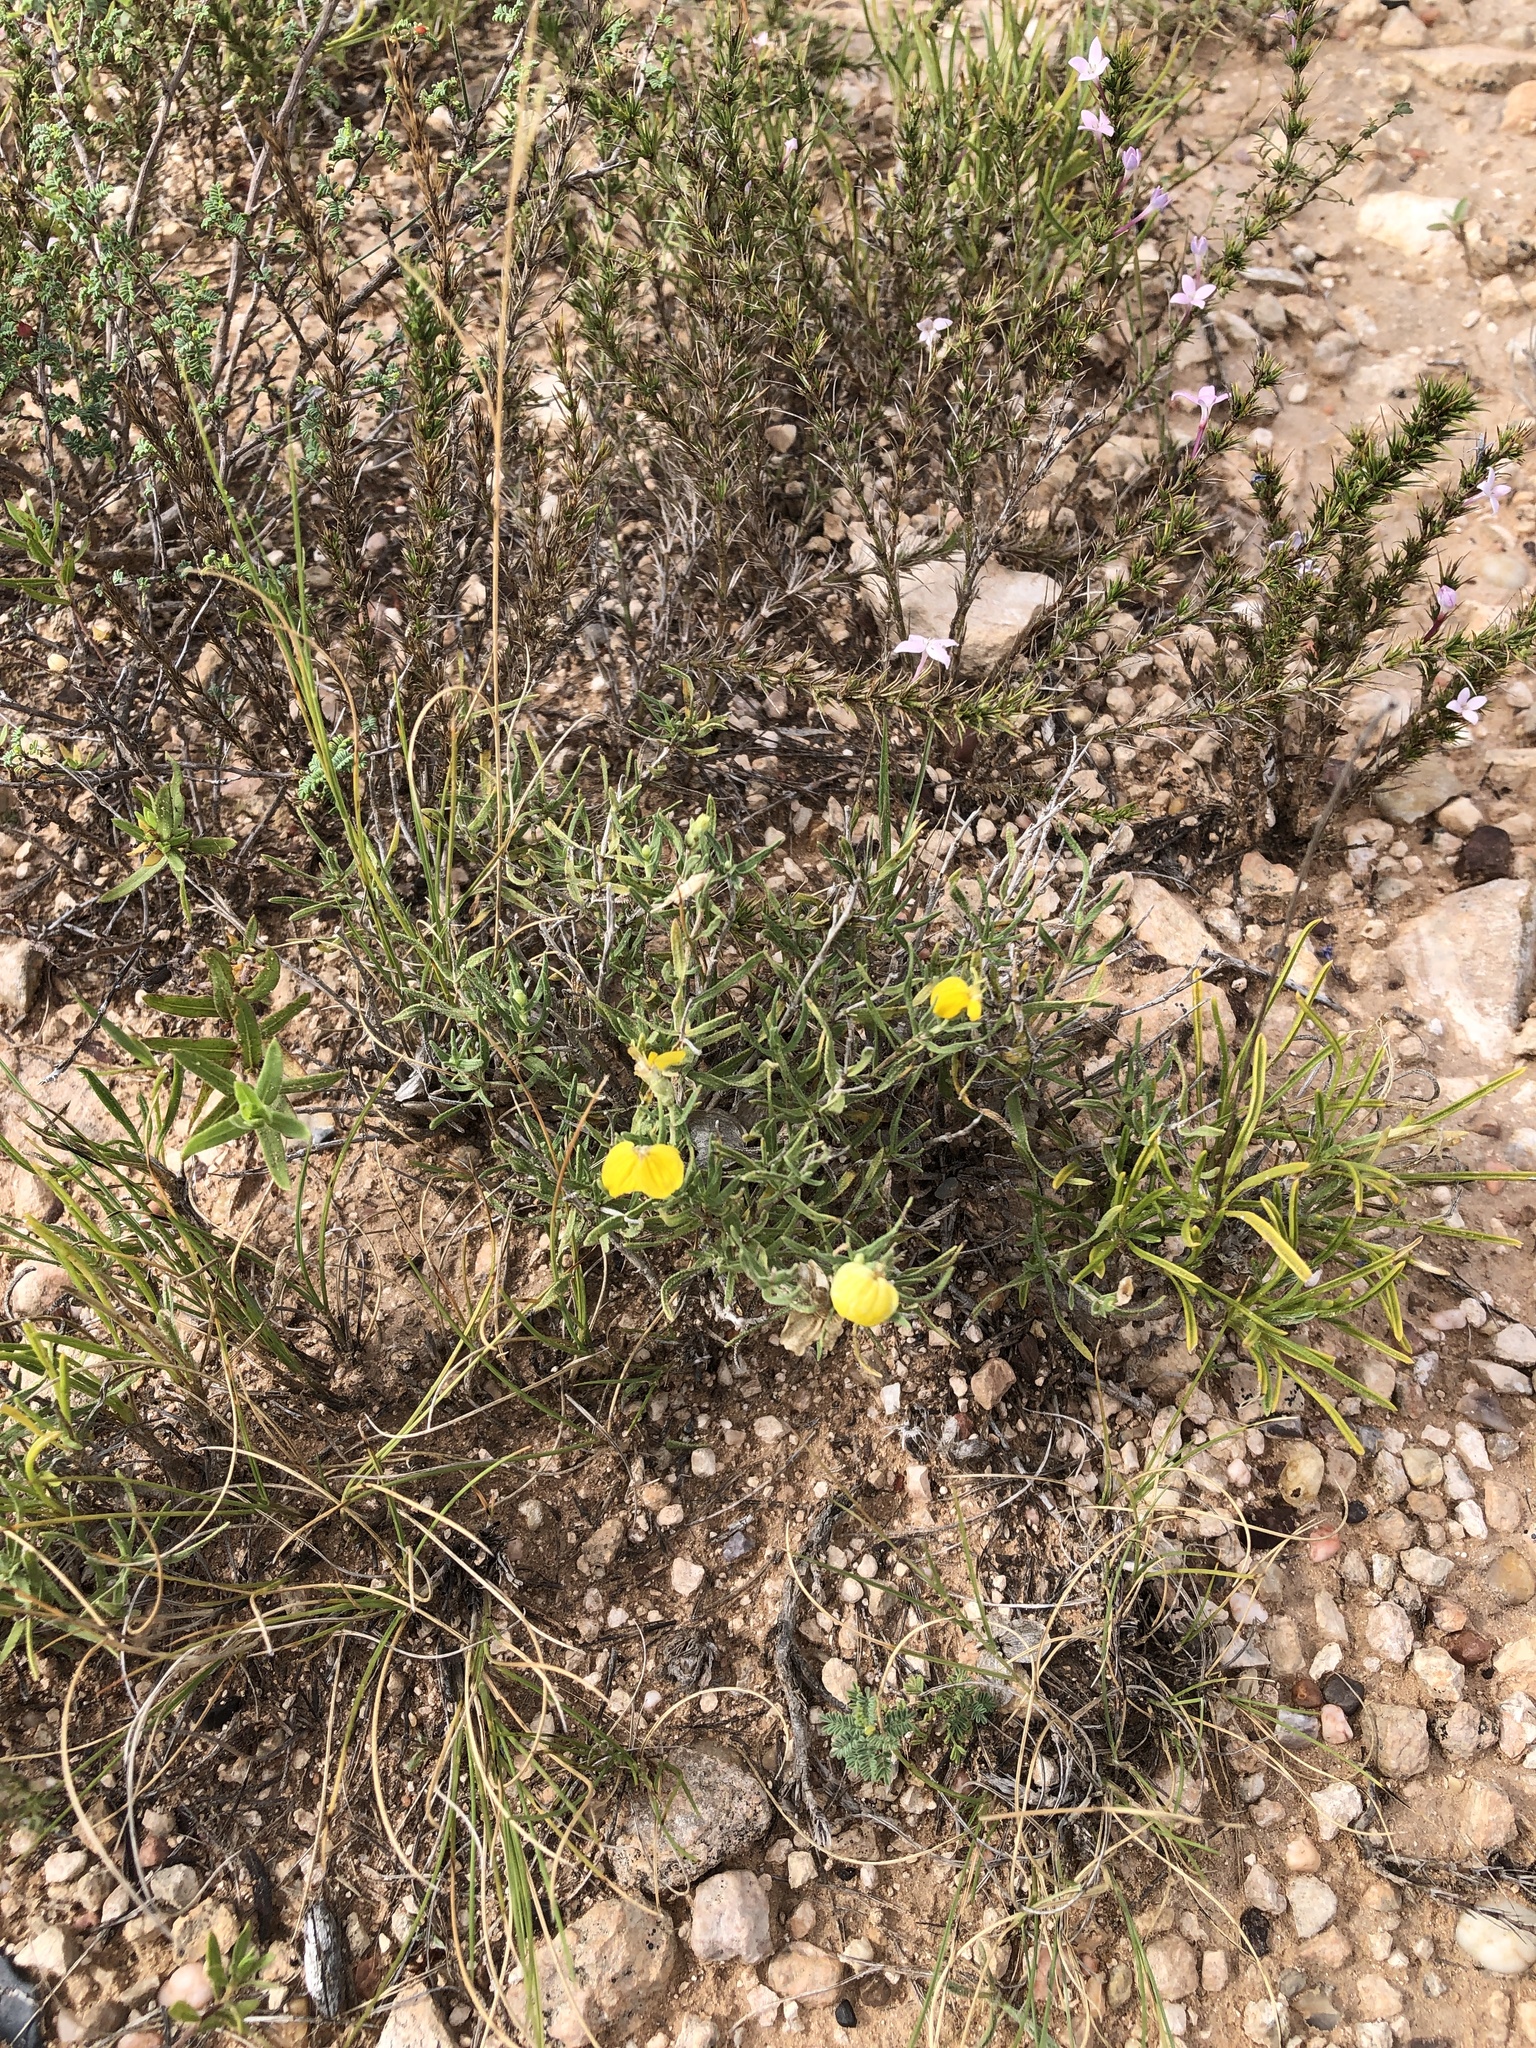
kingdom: Plantae
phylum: Tracheophyta
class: Magnoliopsida
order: Asterales
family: Asteraceae
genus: Zinnia
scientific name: Zinnia grandiflora
